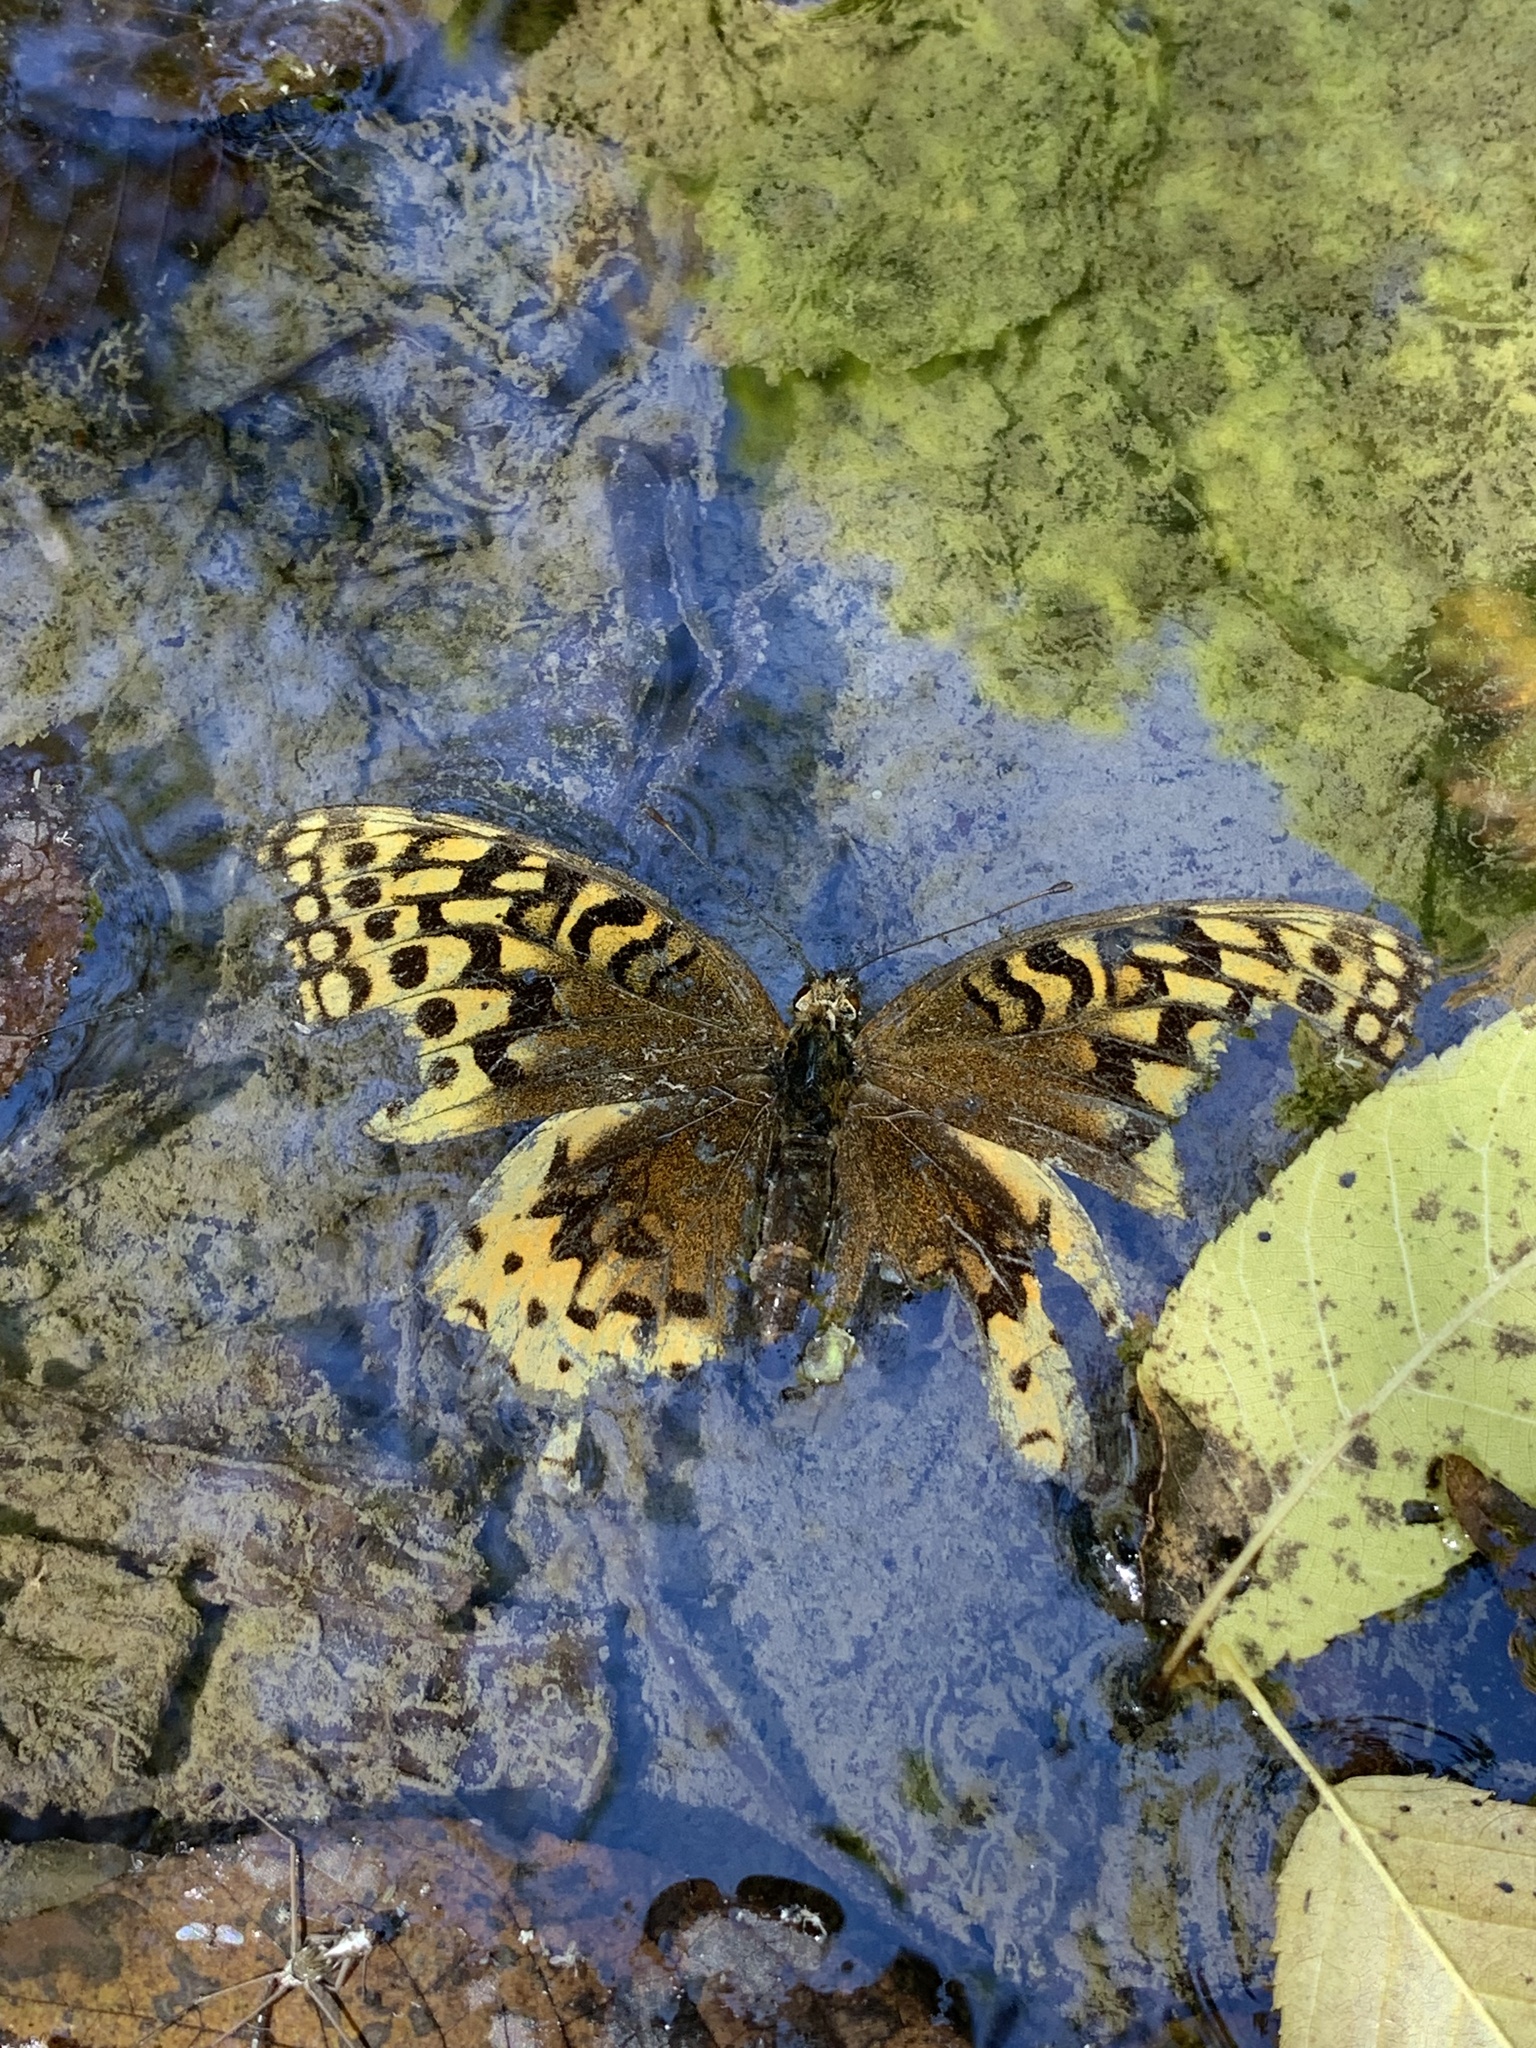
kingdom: Animalia
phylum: Arthropoda
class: Insecta
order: Lepidoptera
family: Nymphalidae
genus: Speyeria
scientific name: Speyeria cybele
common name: Great spangled fritillary
